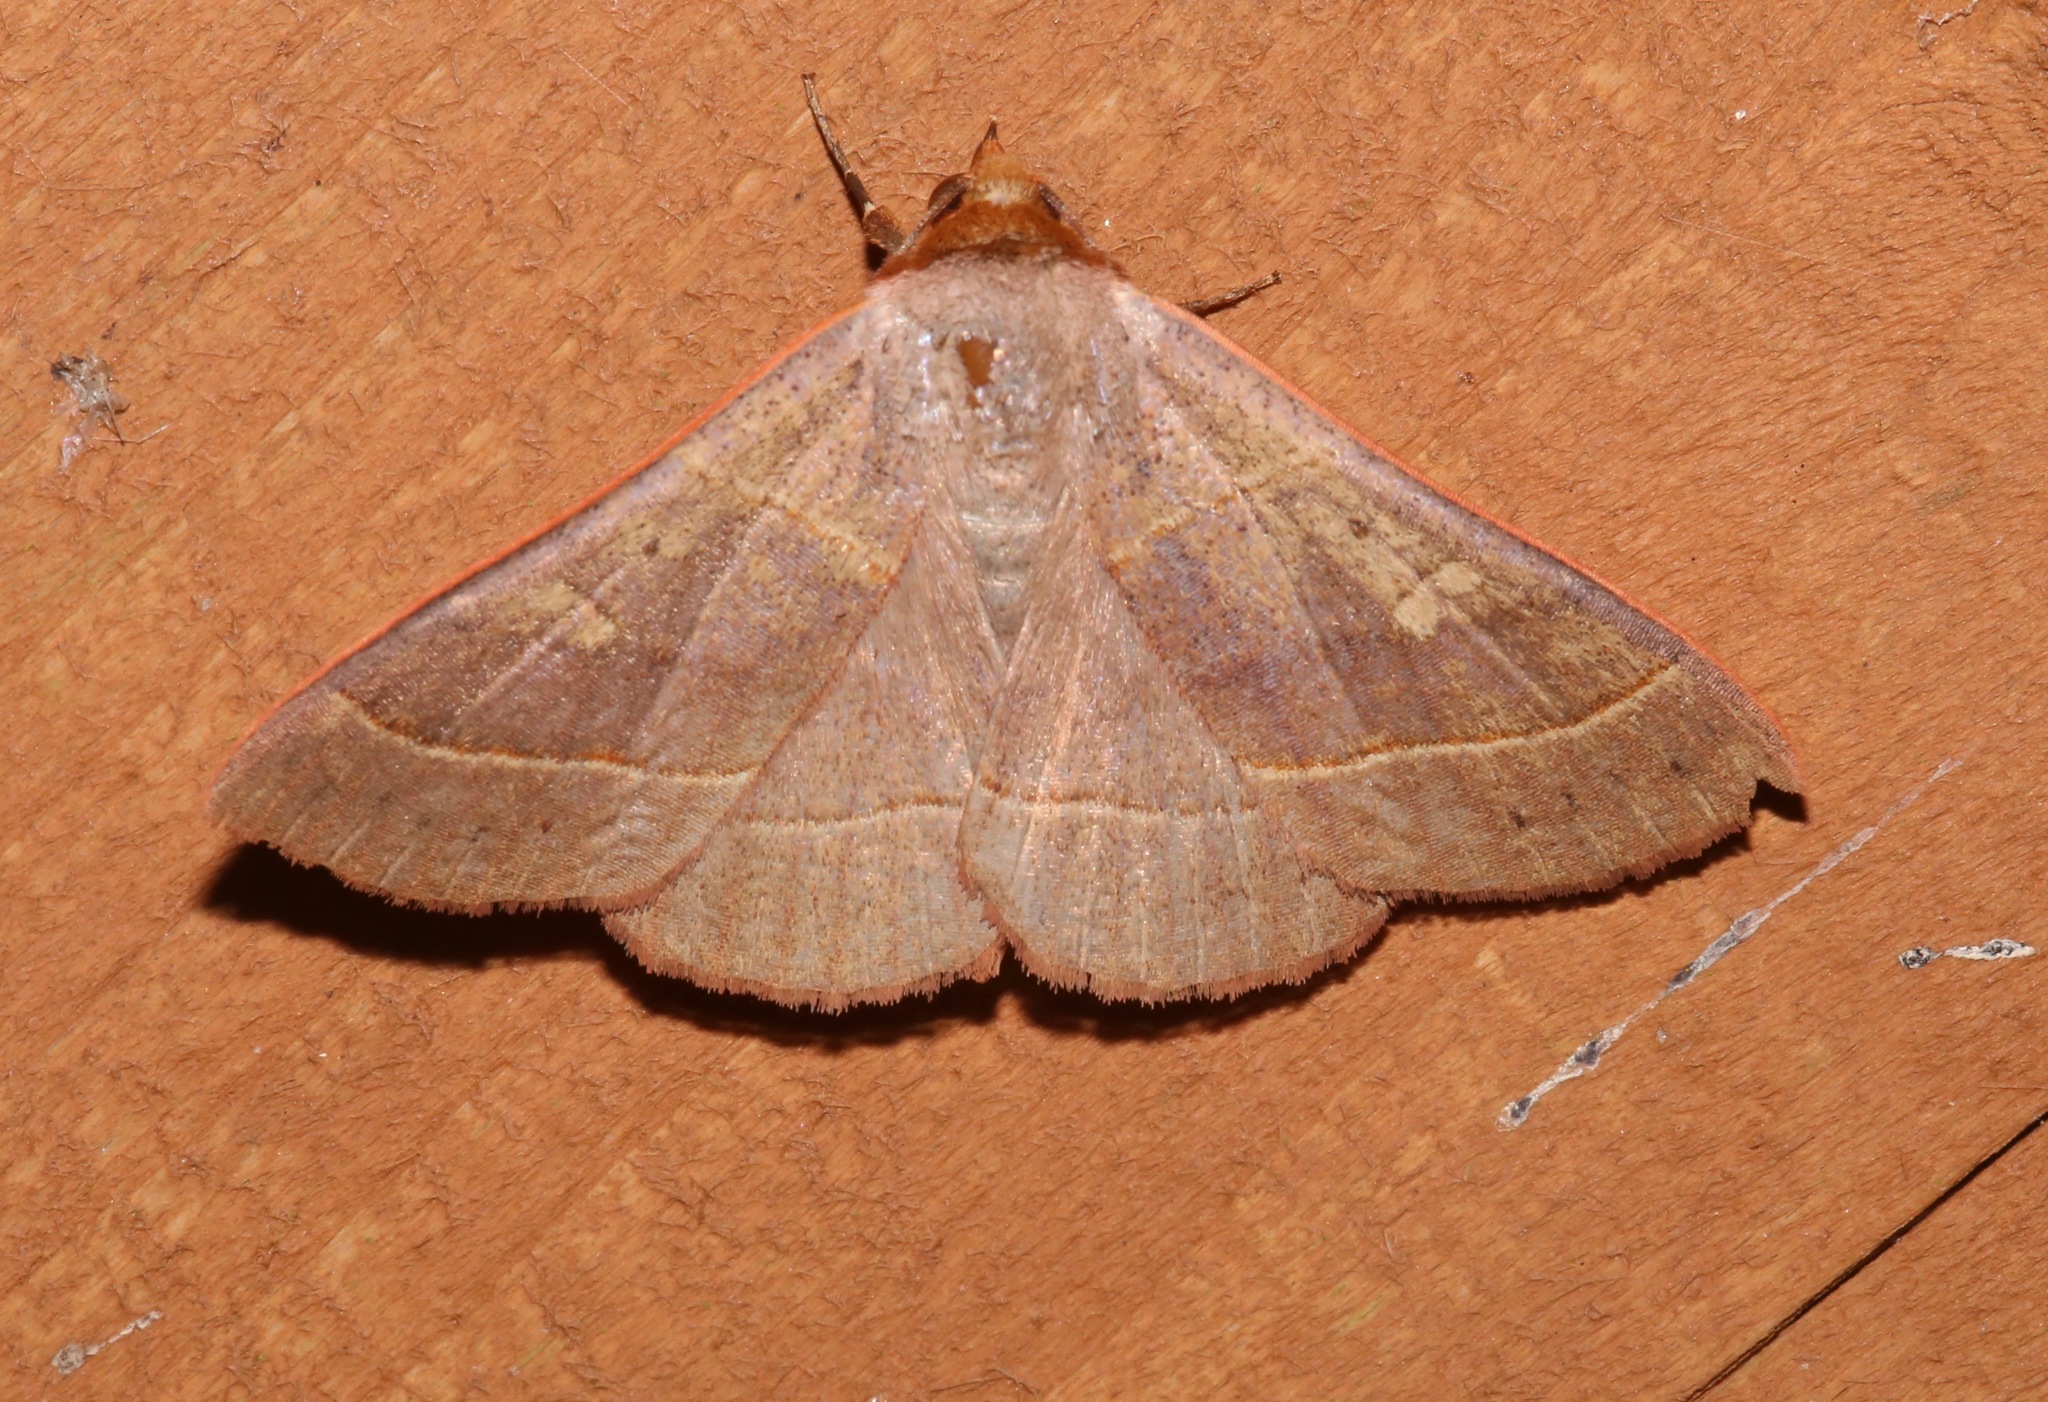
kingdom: Animalia
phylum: Arthropoda
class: Insecta
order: Lepidoptera
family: Erebidae
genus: Panopoda
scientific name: Panopoda rufimargo
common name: Red-lined panopoda moth
